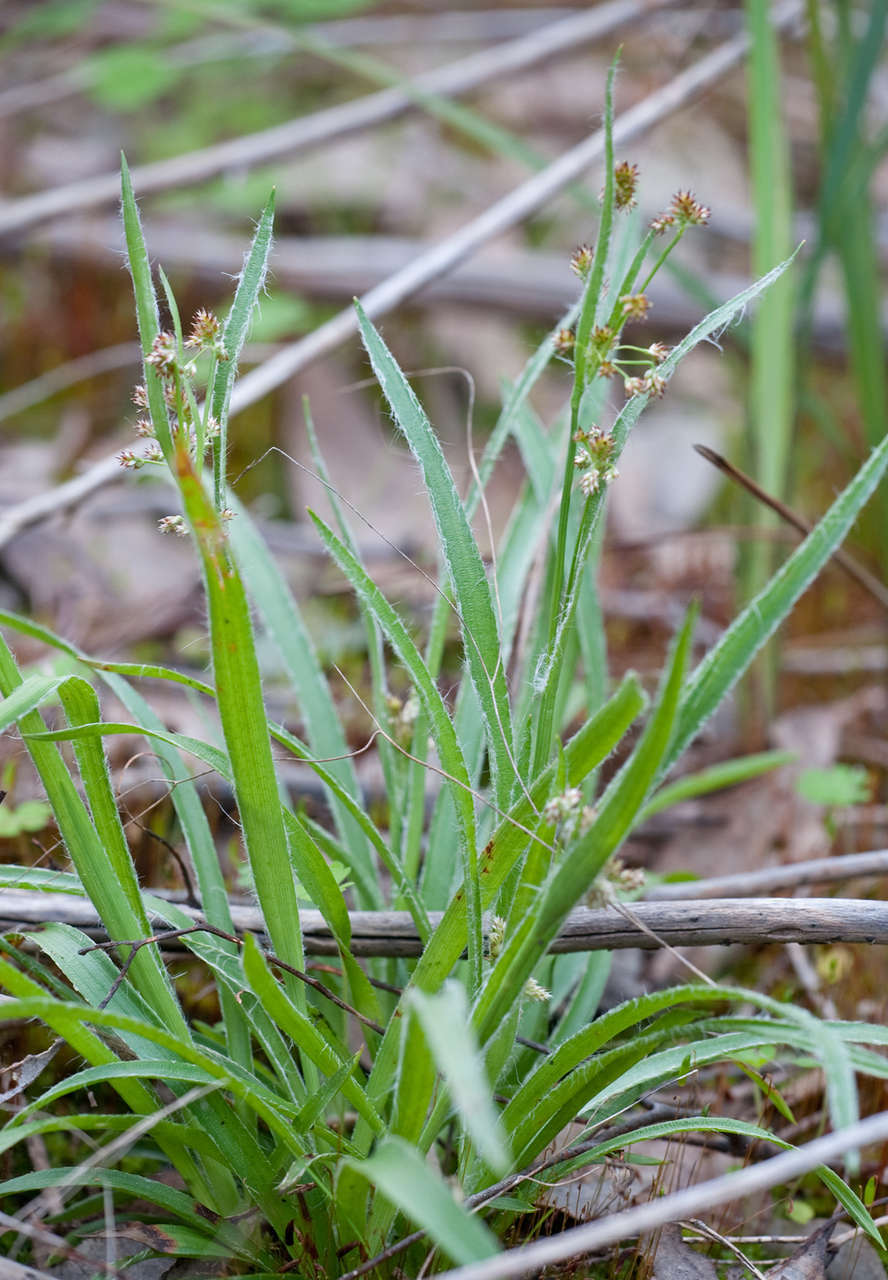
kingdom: Plantae
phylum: Tracheophyta
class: Liliopsida
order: Poales
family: Juncaceae
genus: Luzula
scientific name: Luzula meridionalis
